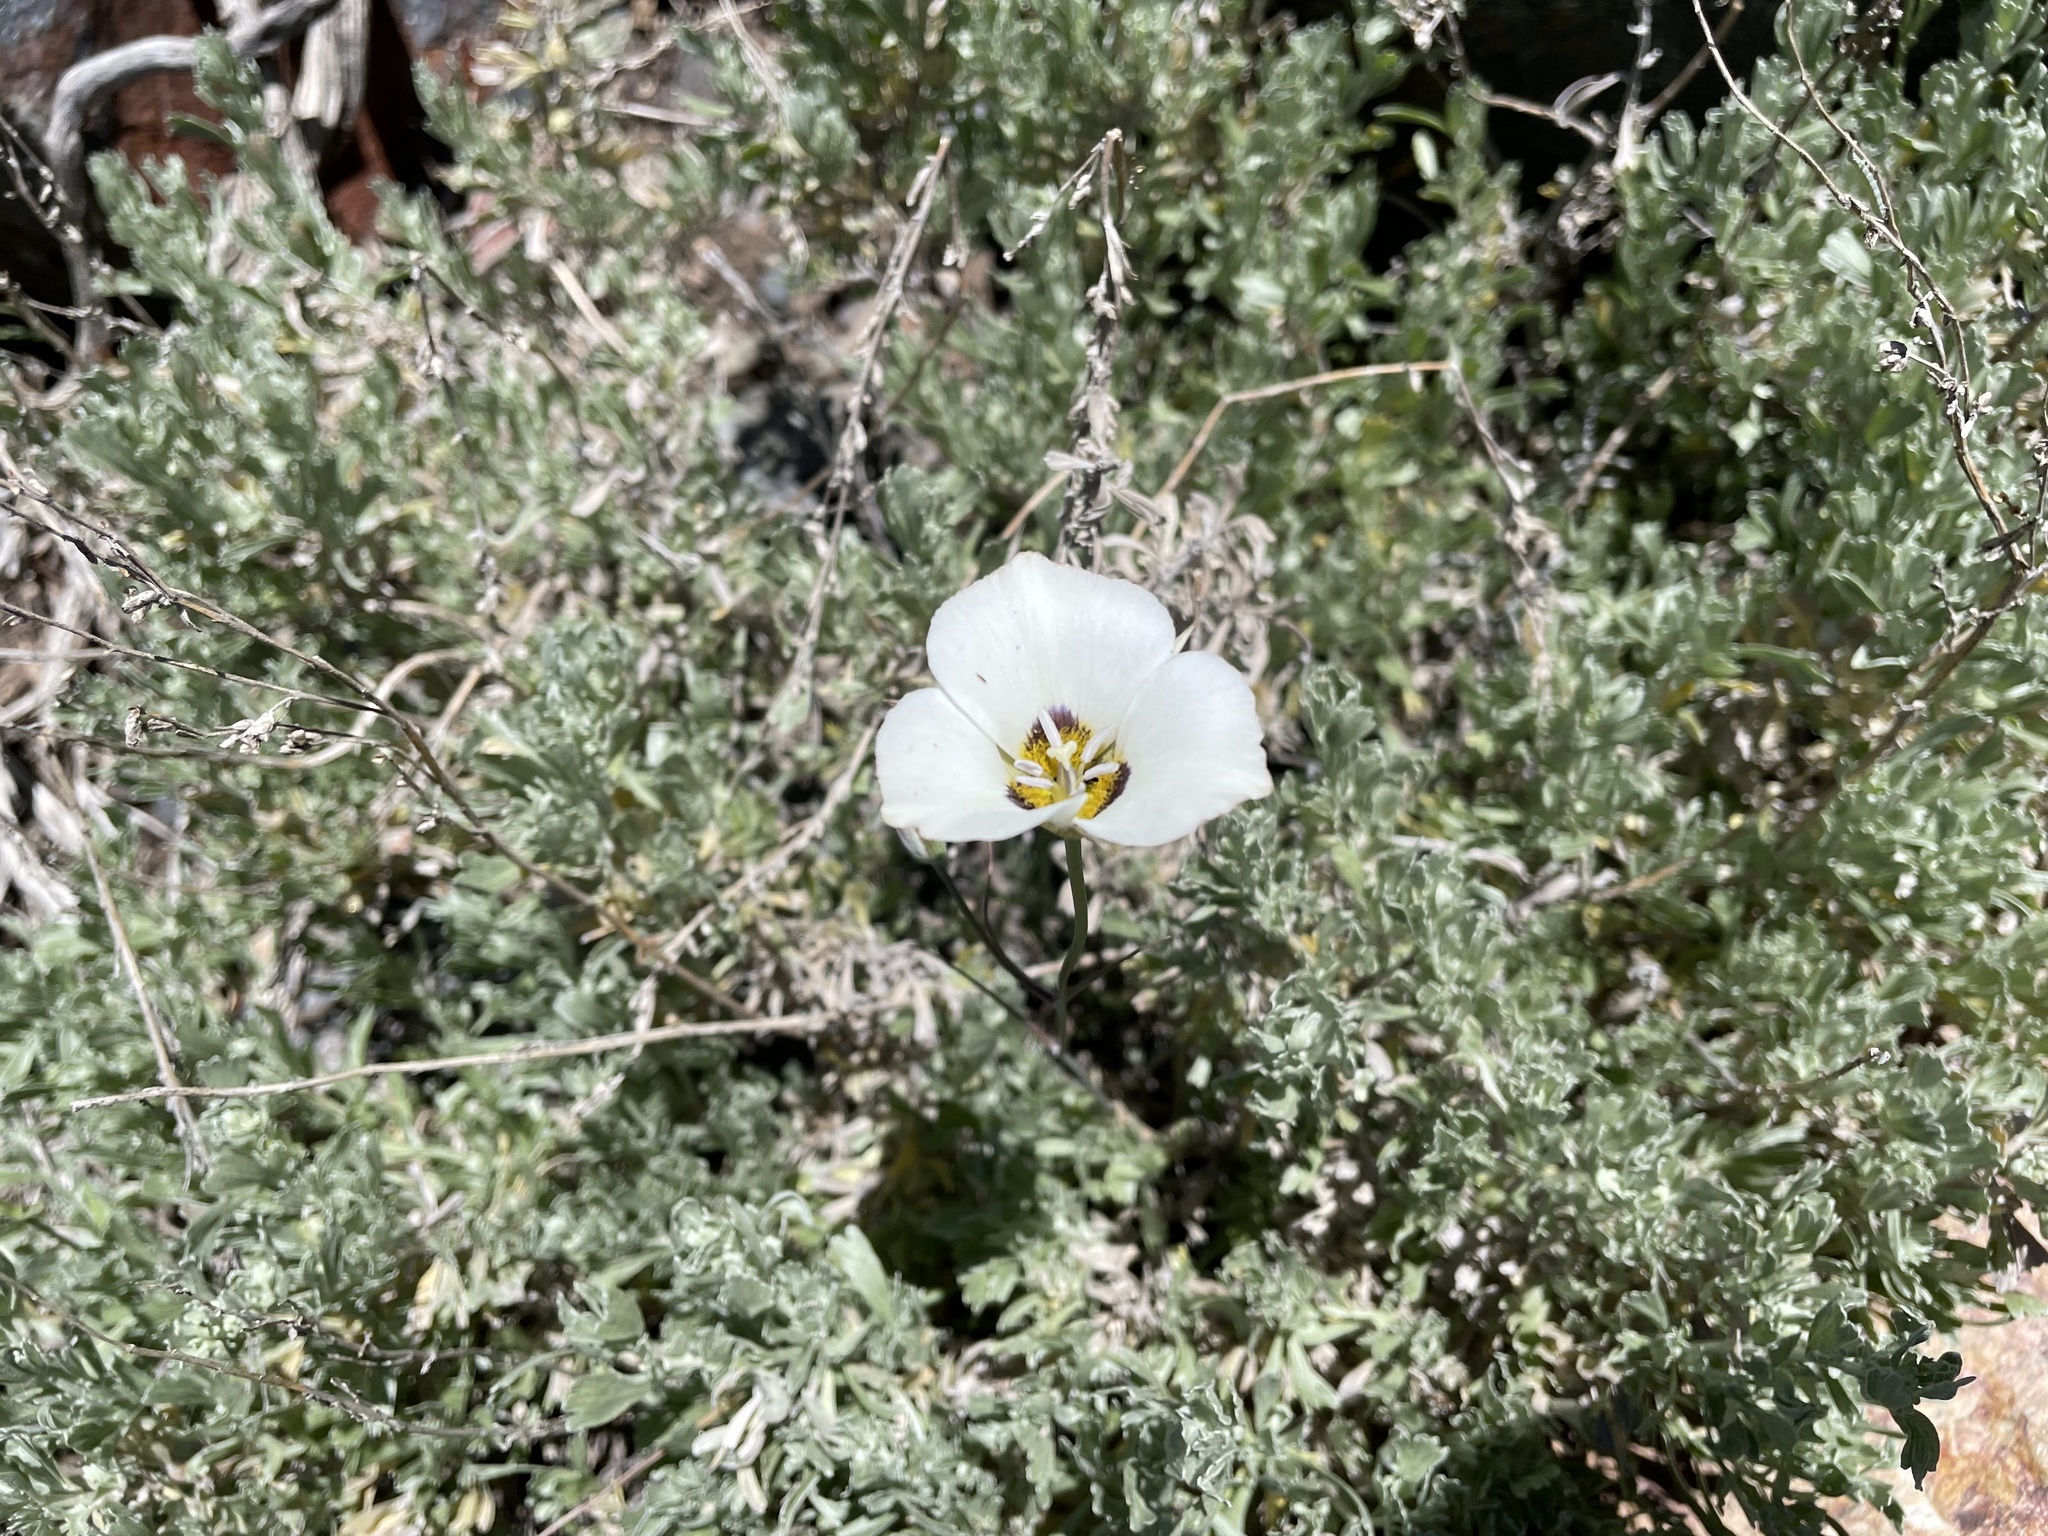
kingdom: Plantae
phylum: Tracheophyta
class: Liliopsida
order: Liliales
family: Liliaceae
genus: Calochortus
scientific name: Calochortus leichtlinii
